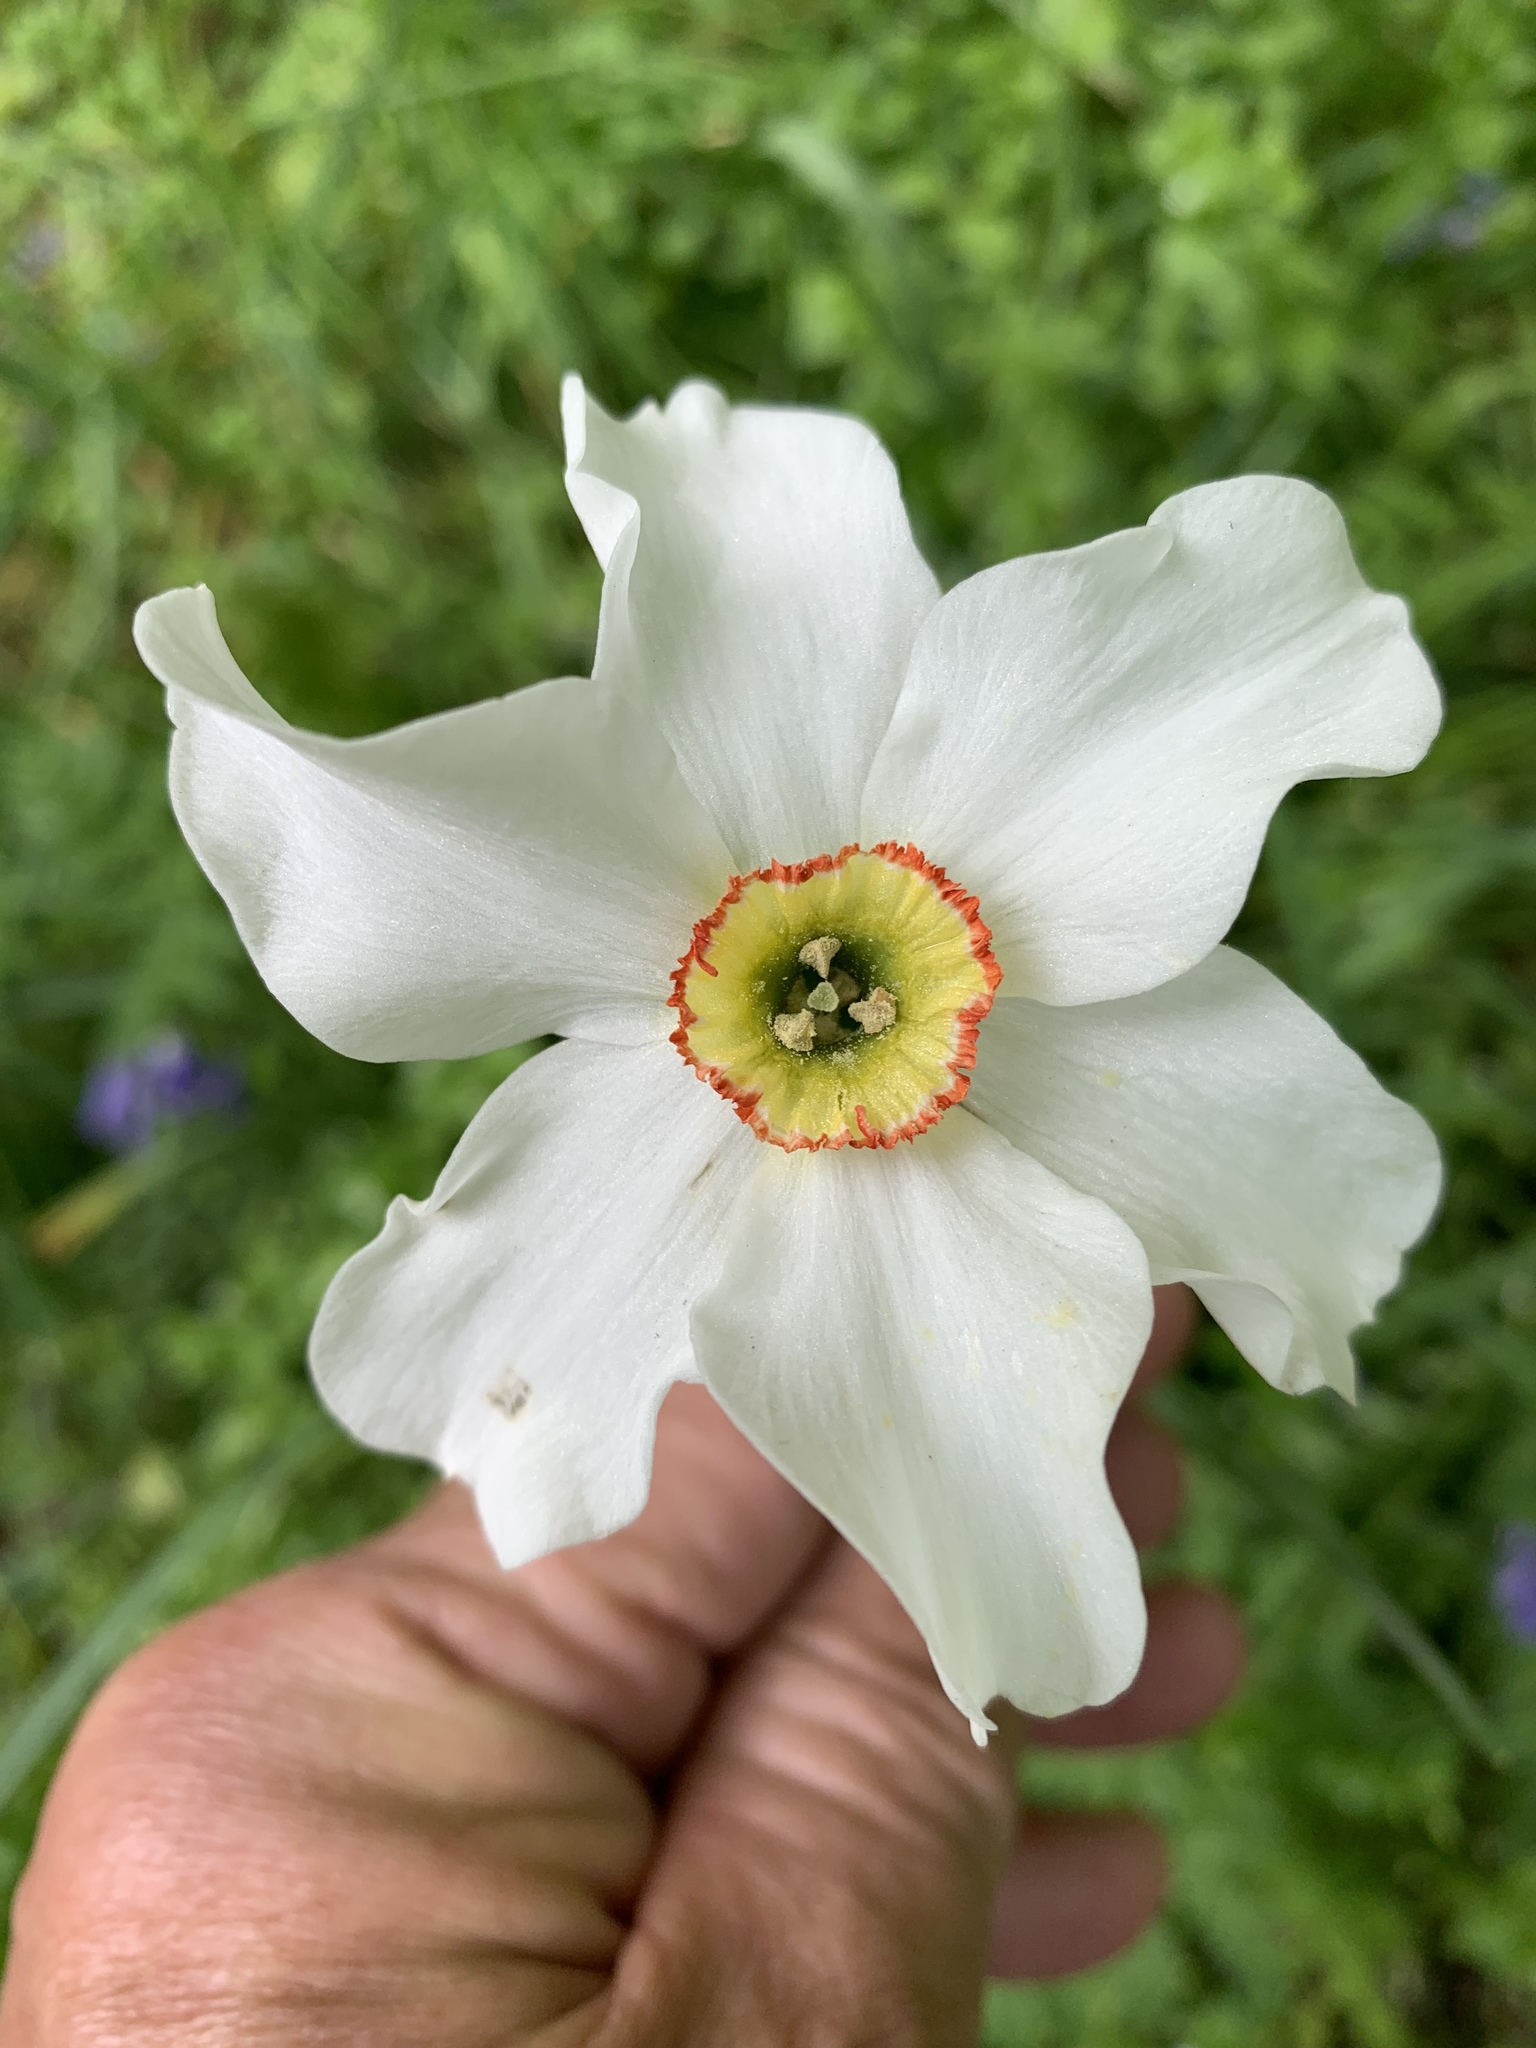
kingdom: Plantae
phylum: Tracheophyta
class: Liliopsida
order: Asparagales
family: Amaryllidaceae
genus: Narcissus
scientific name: Narcissus poeticus
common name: Pheasant's-eye daffodil
